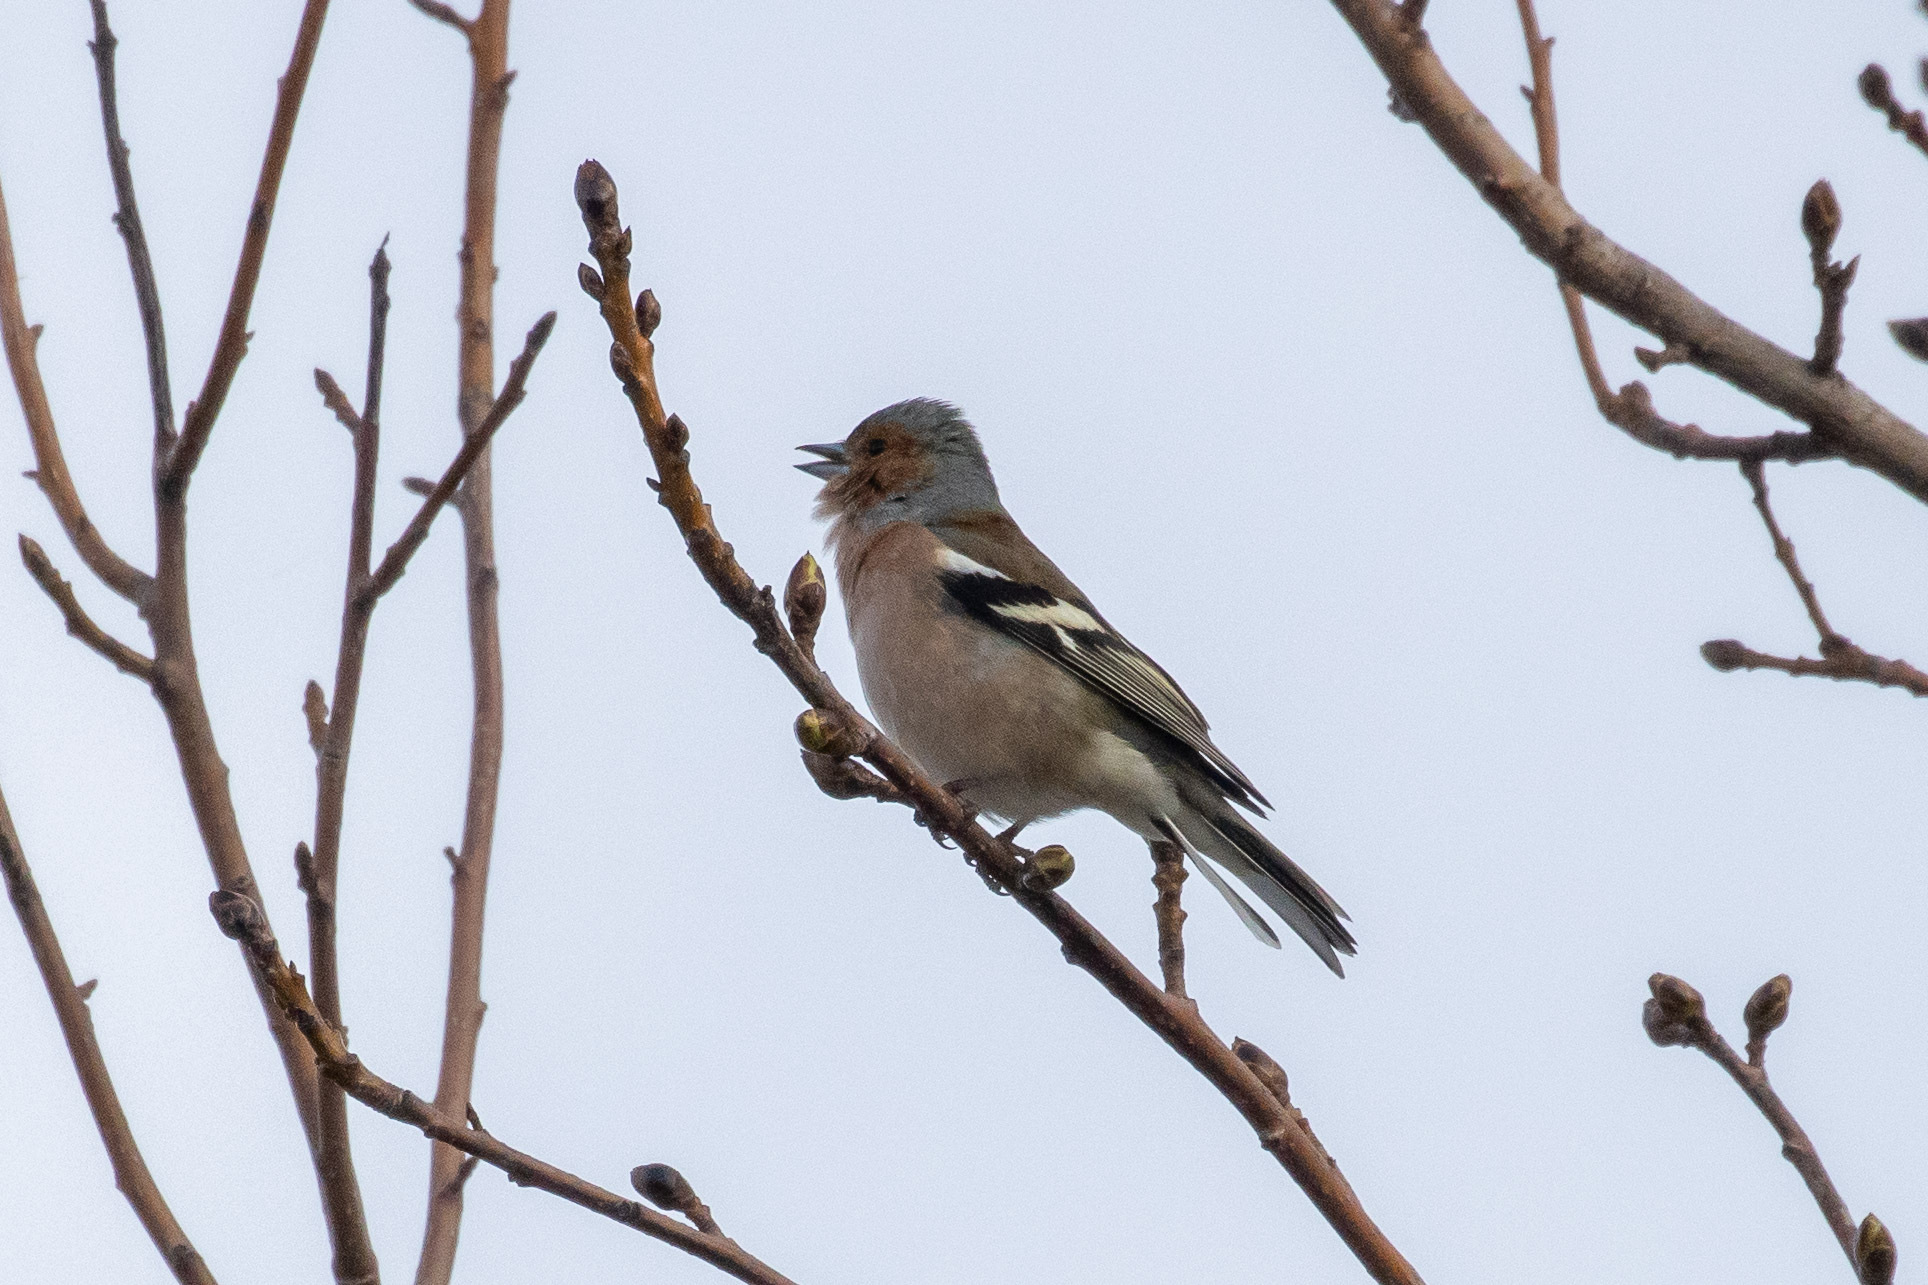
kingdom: Animalia
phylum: Chordata
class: Aves
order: Passeriformes
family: Fringillidae
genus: Fringilla
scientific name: Fringilla coelebs
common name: Common chaffinch
